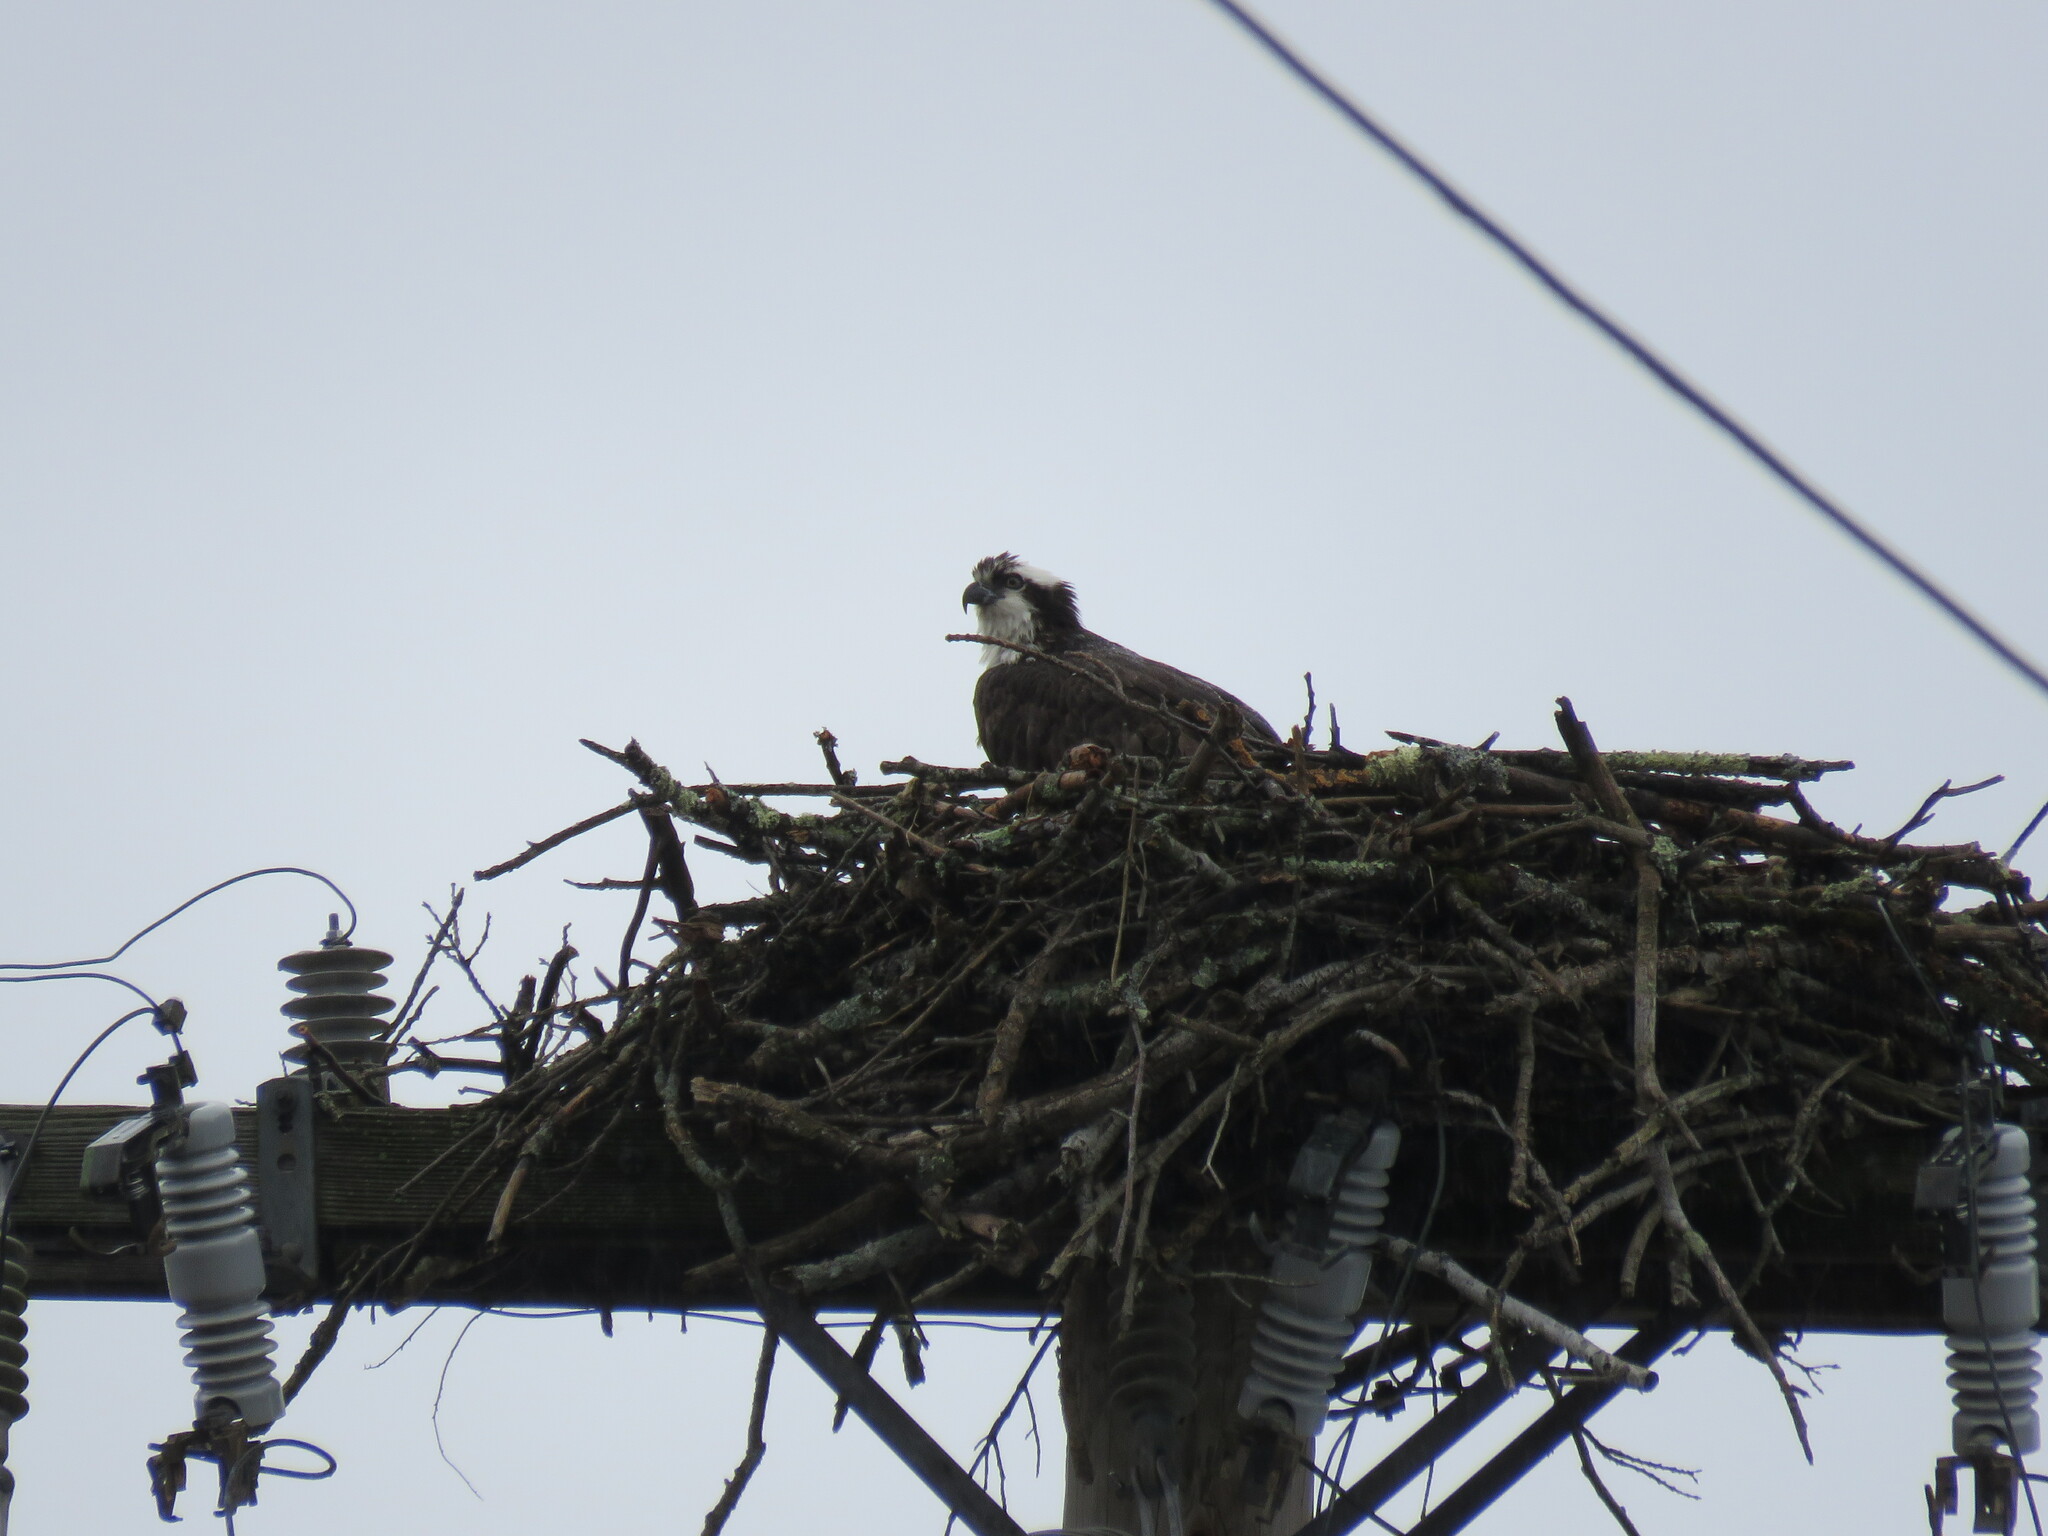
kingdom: Animalia
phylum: Chordata
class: Aves
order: Accipitriformes
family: Pandionidae
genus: Pandion
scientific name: Pandion haliaetus
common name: Osprey
